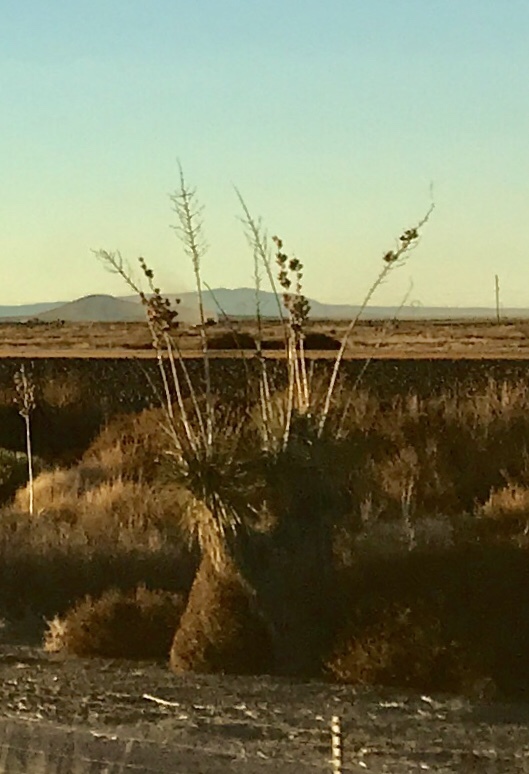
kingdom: Plantae
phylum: Tracheophyta
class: Liliopsida
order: Asparagales
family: Asparagaceae
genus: Yucca
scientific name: Yucca elata
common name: Palmella
